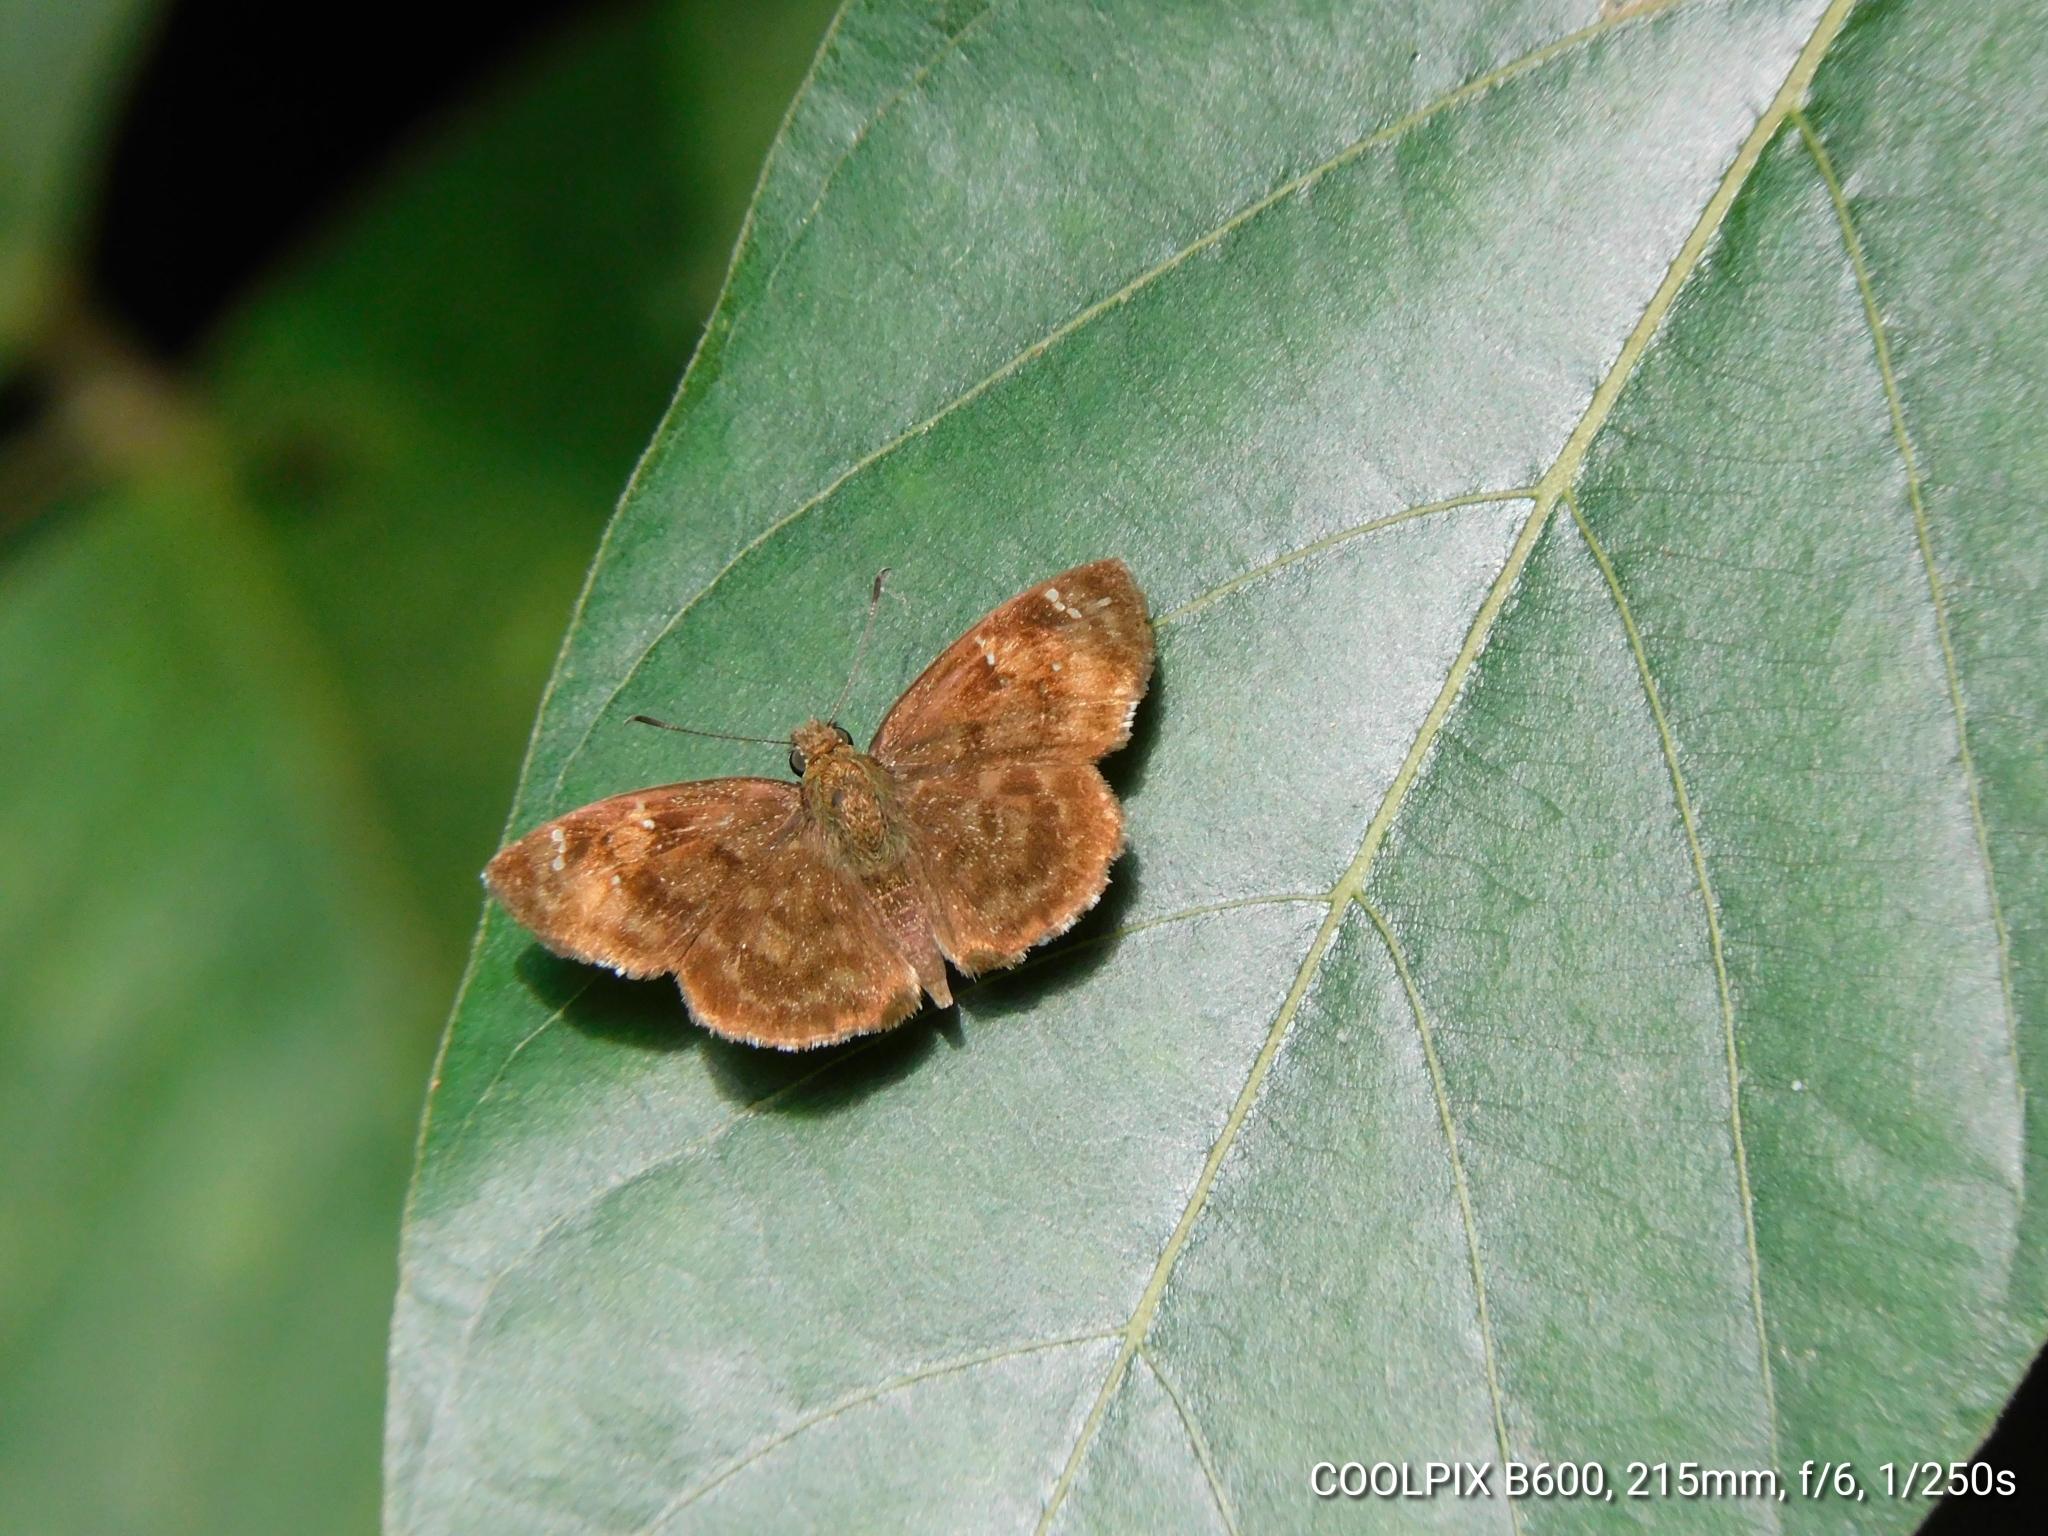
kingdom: Animalia
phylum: Arthropoda
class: Insecta
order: Lepidoptera
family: Hesperiidae
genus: Sarangesa
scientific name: Sarangesa dasahara
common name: Common small flat
